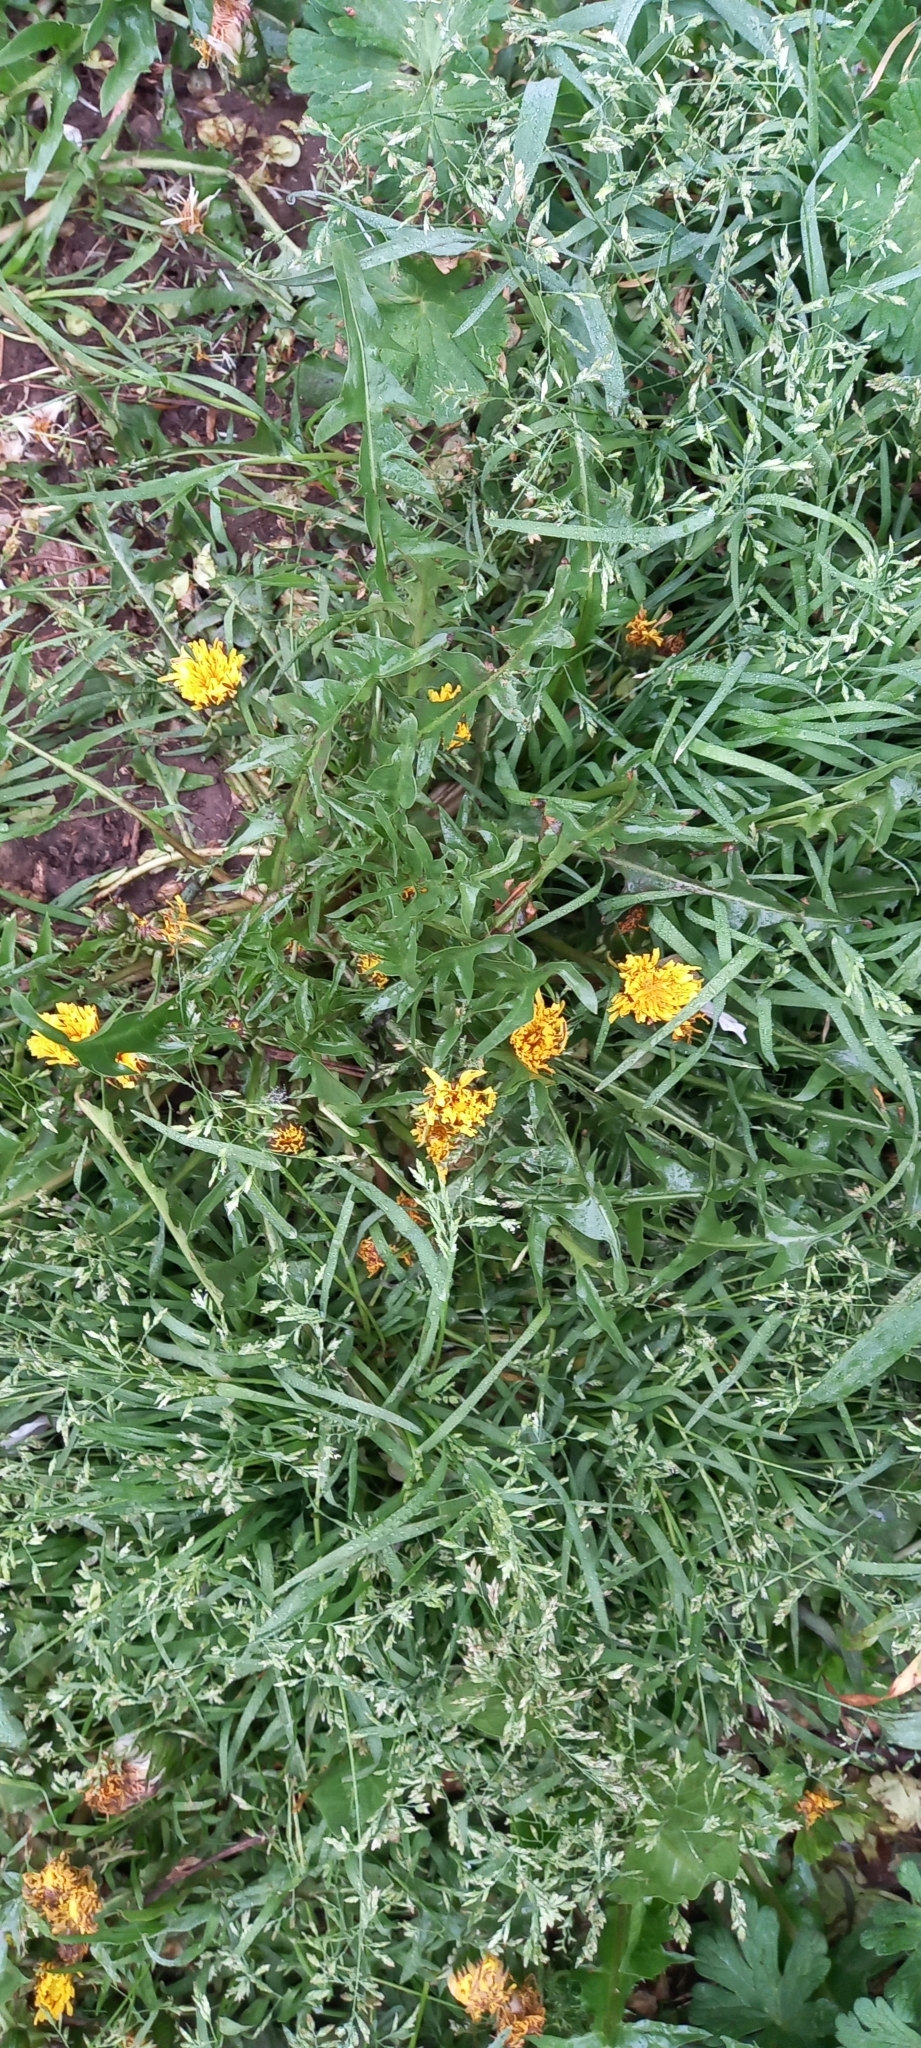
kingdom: Plantae
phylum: Tracheophyta
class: Magnoliopsida
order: Asterales
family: Asteraceae
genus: Taraxacum
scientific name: Taraxacum officinale
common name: Common dandelion
